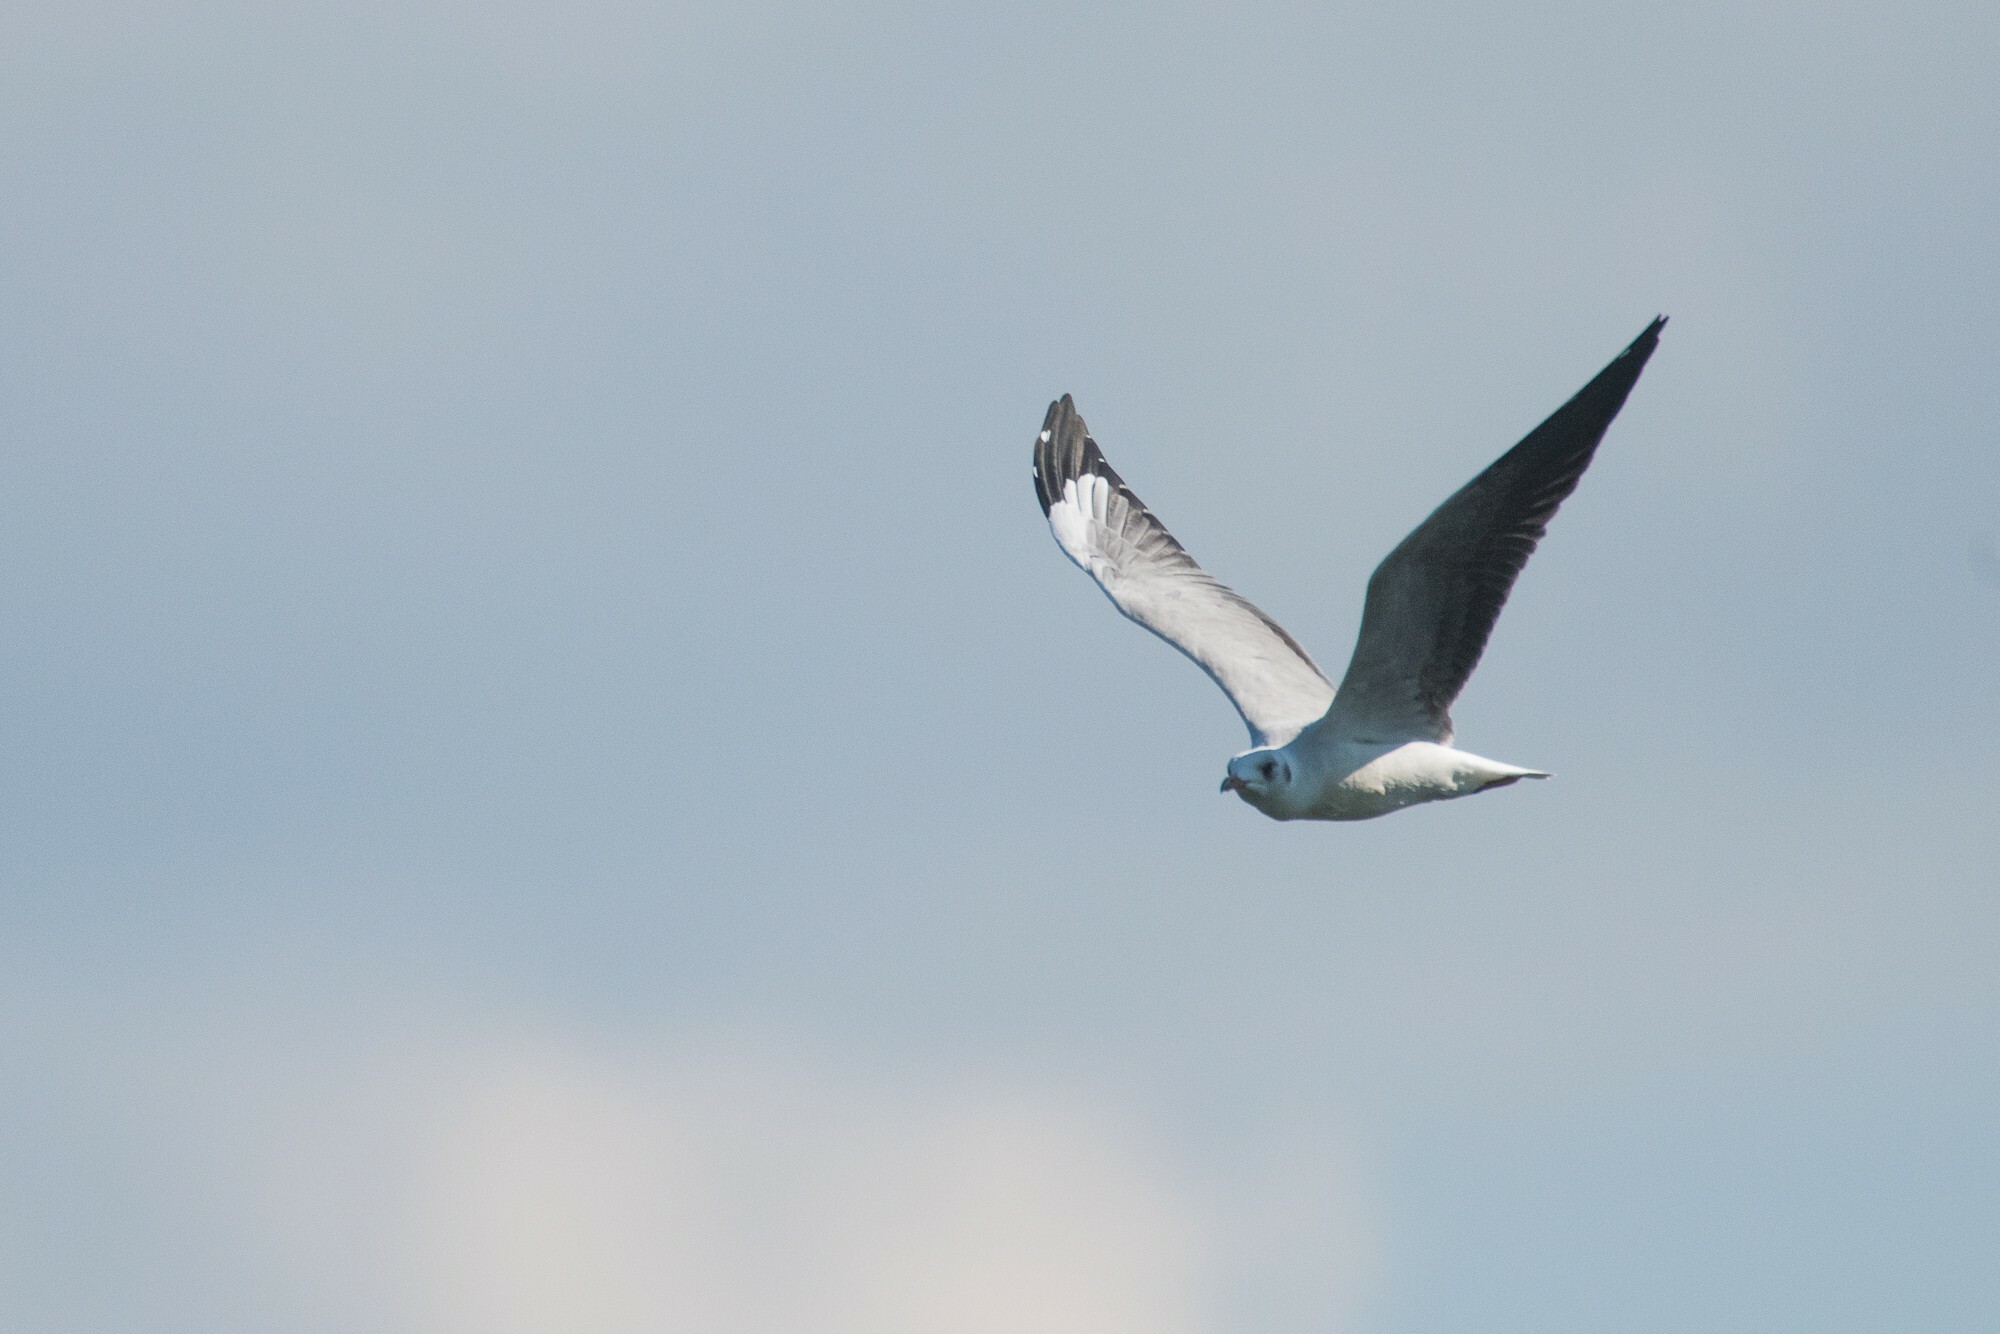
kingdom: Animalia
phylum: Chordata
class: Aves
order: Charadriiformes
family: Laridae
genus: Chroicocephalus
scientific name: Chroicocephalus cirrocephalus
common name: Grey-headed gull
